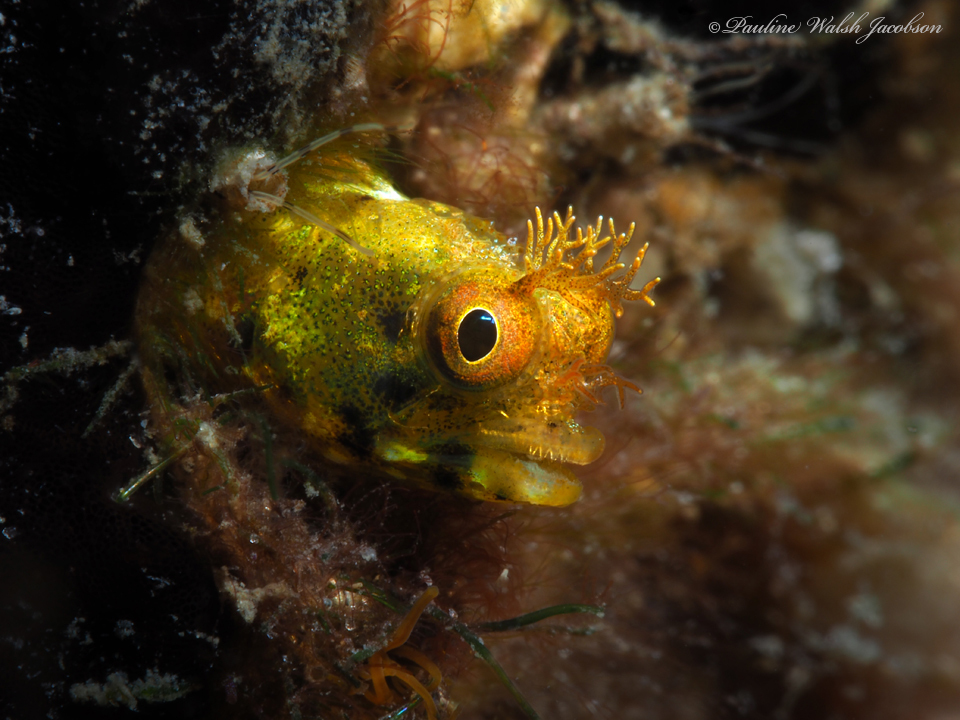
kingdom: Animalia
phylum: Chordata
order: Perciformes
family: Chaenopsidae
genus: Acanthemblemaria
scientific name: Acanthemblemaria aspera
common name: Roughhead blenny
